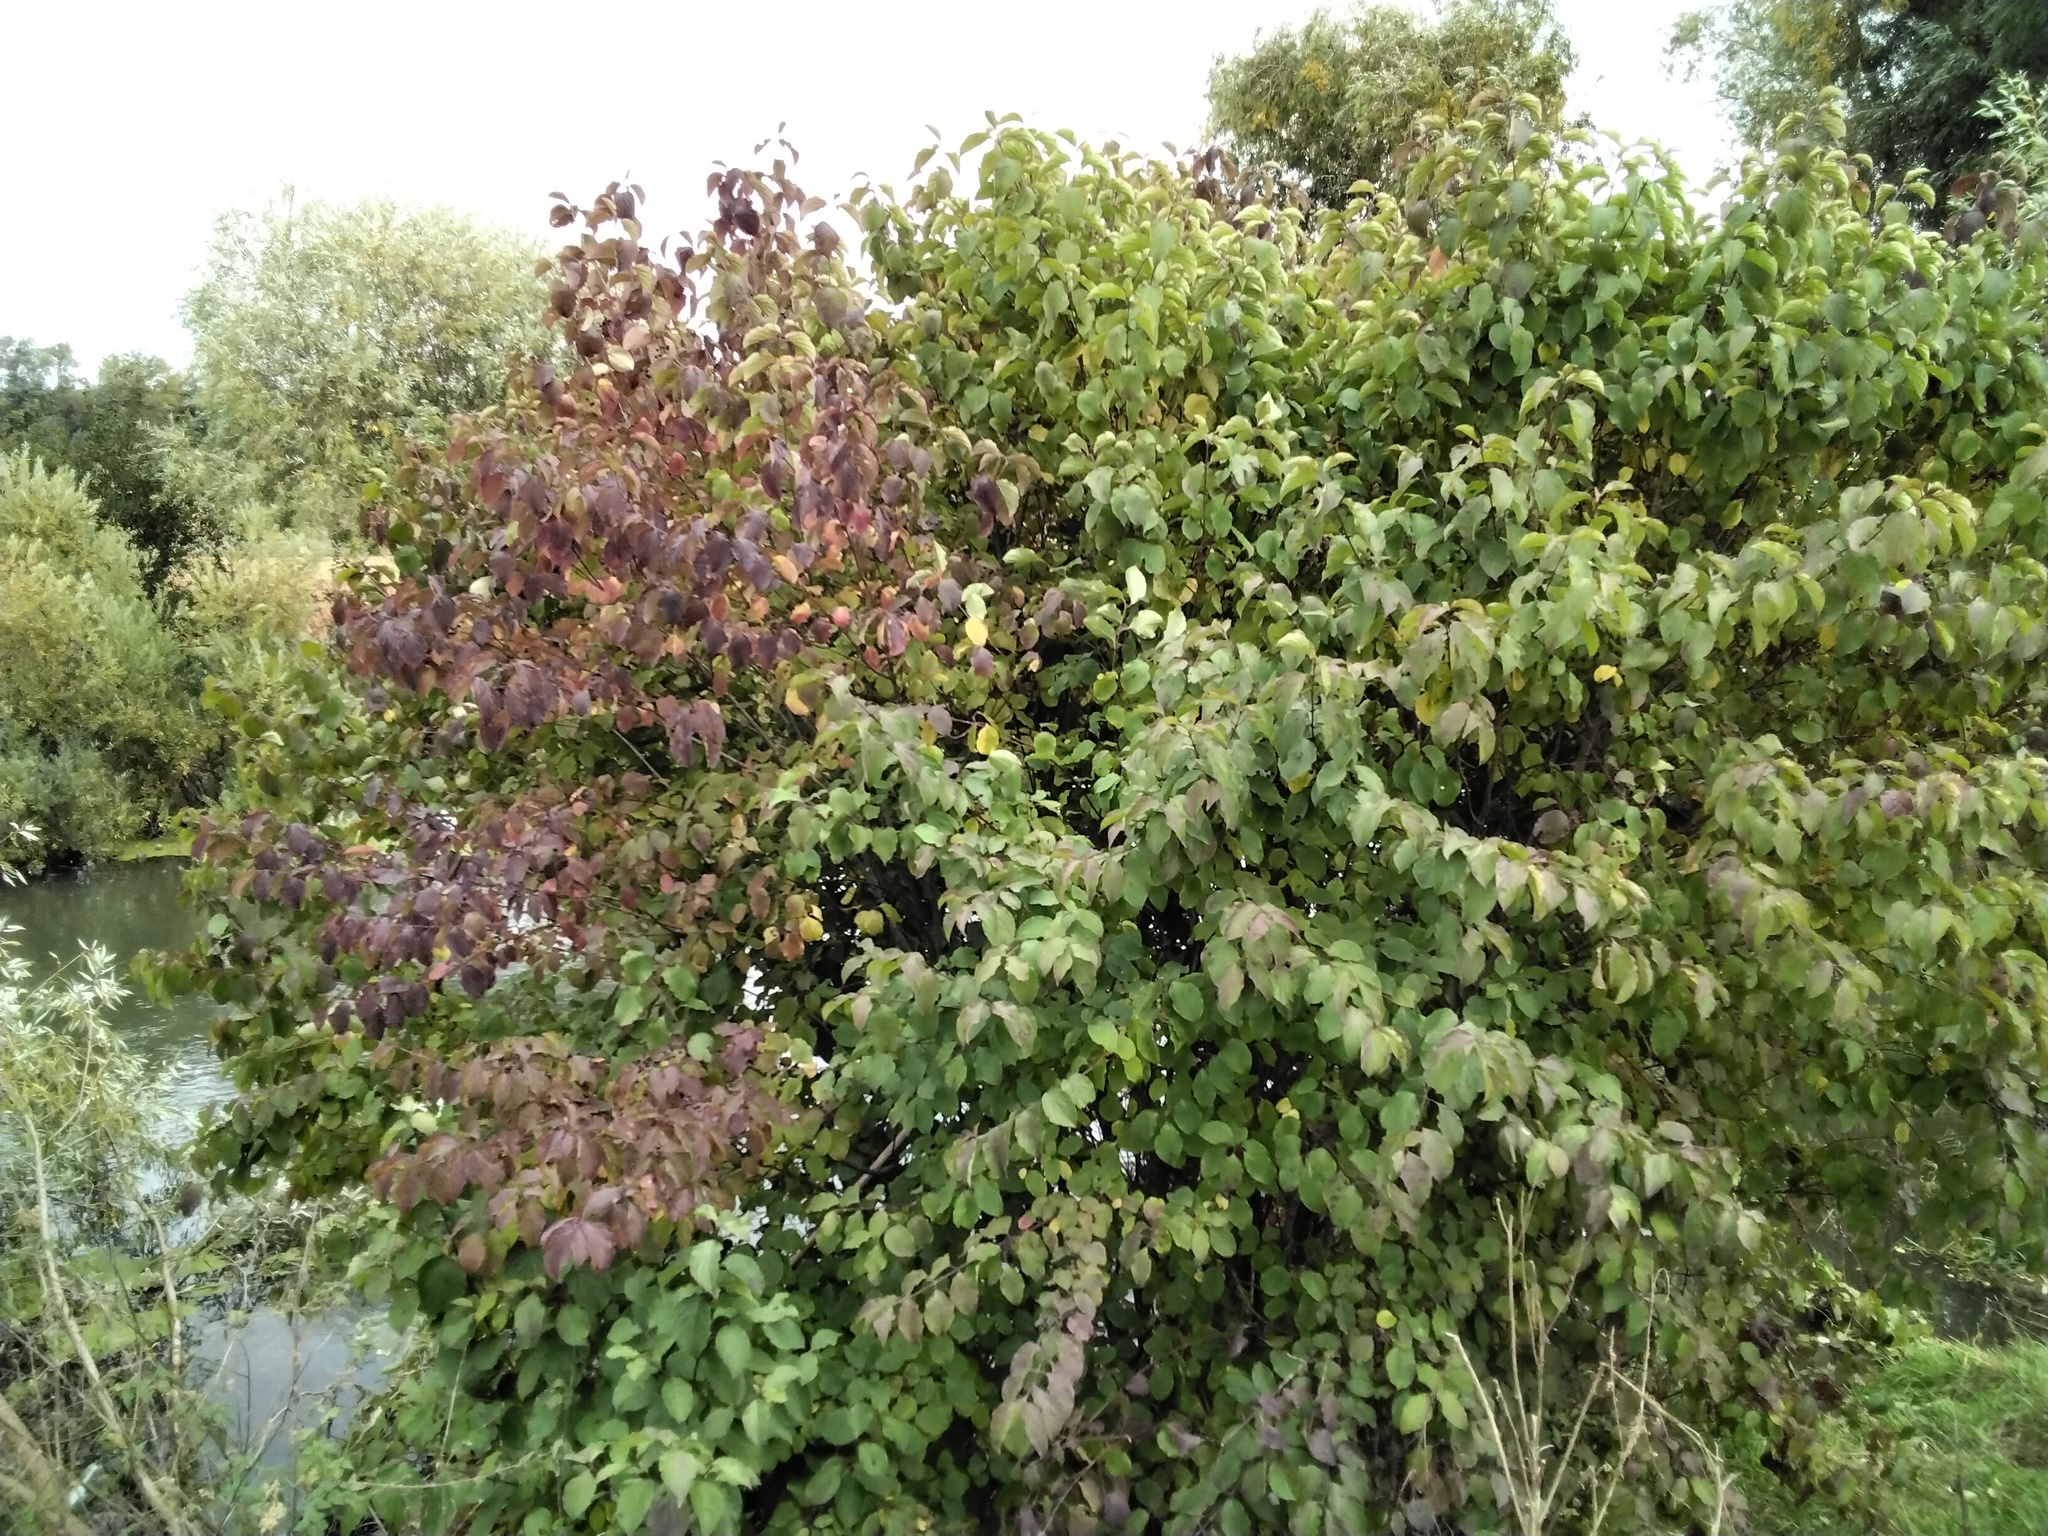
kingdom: Plantae
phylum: Tracheophyta
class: Magnoliopsida
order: Cornales
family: Cornaceae
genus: Cornus
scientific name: Cornus sanguinea
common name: Dogwood
